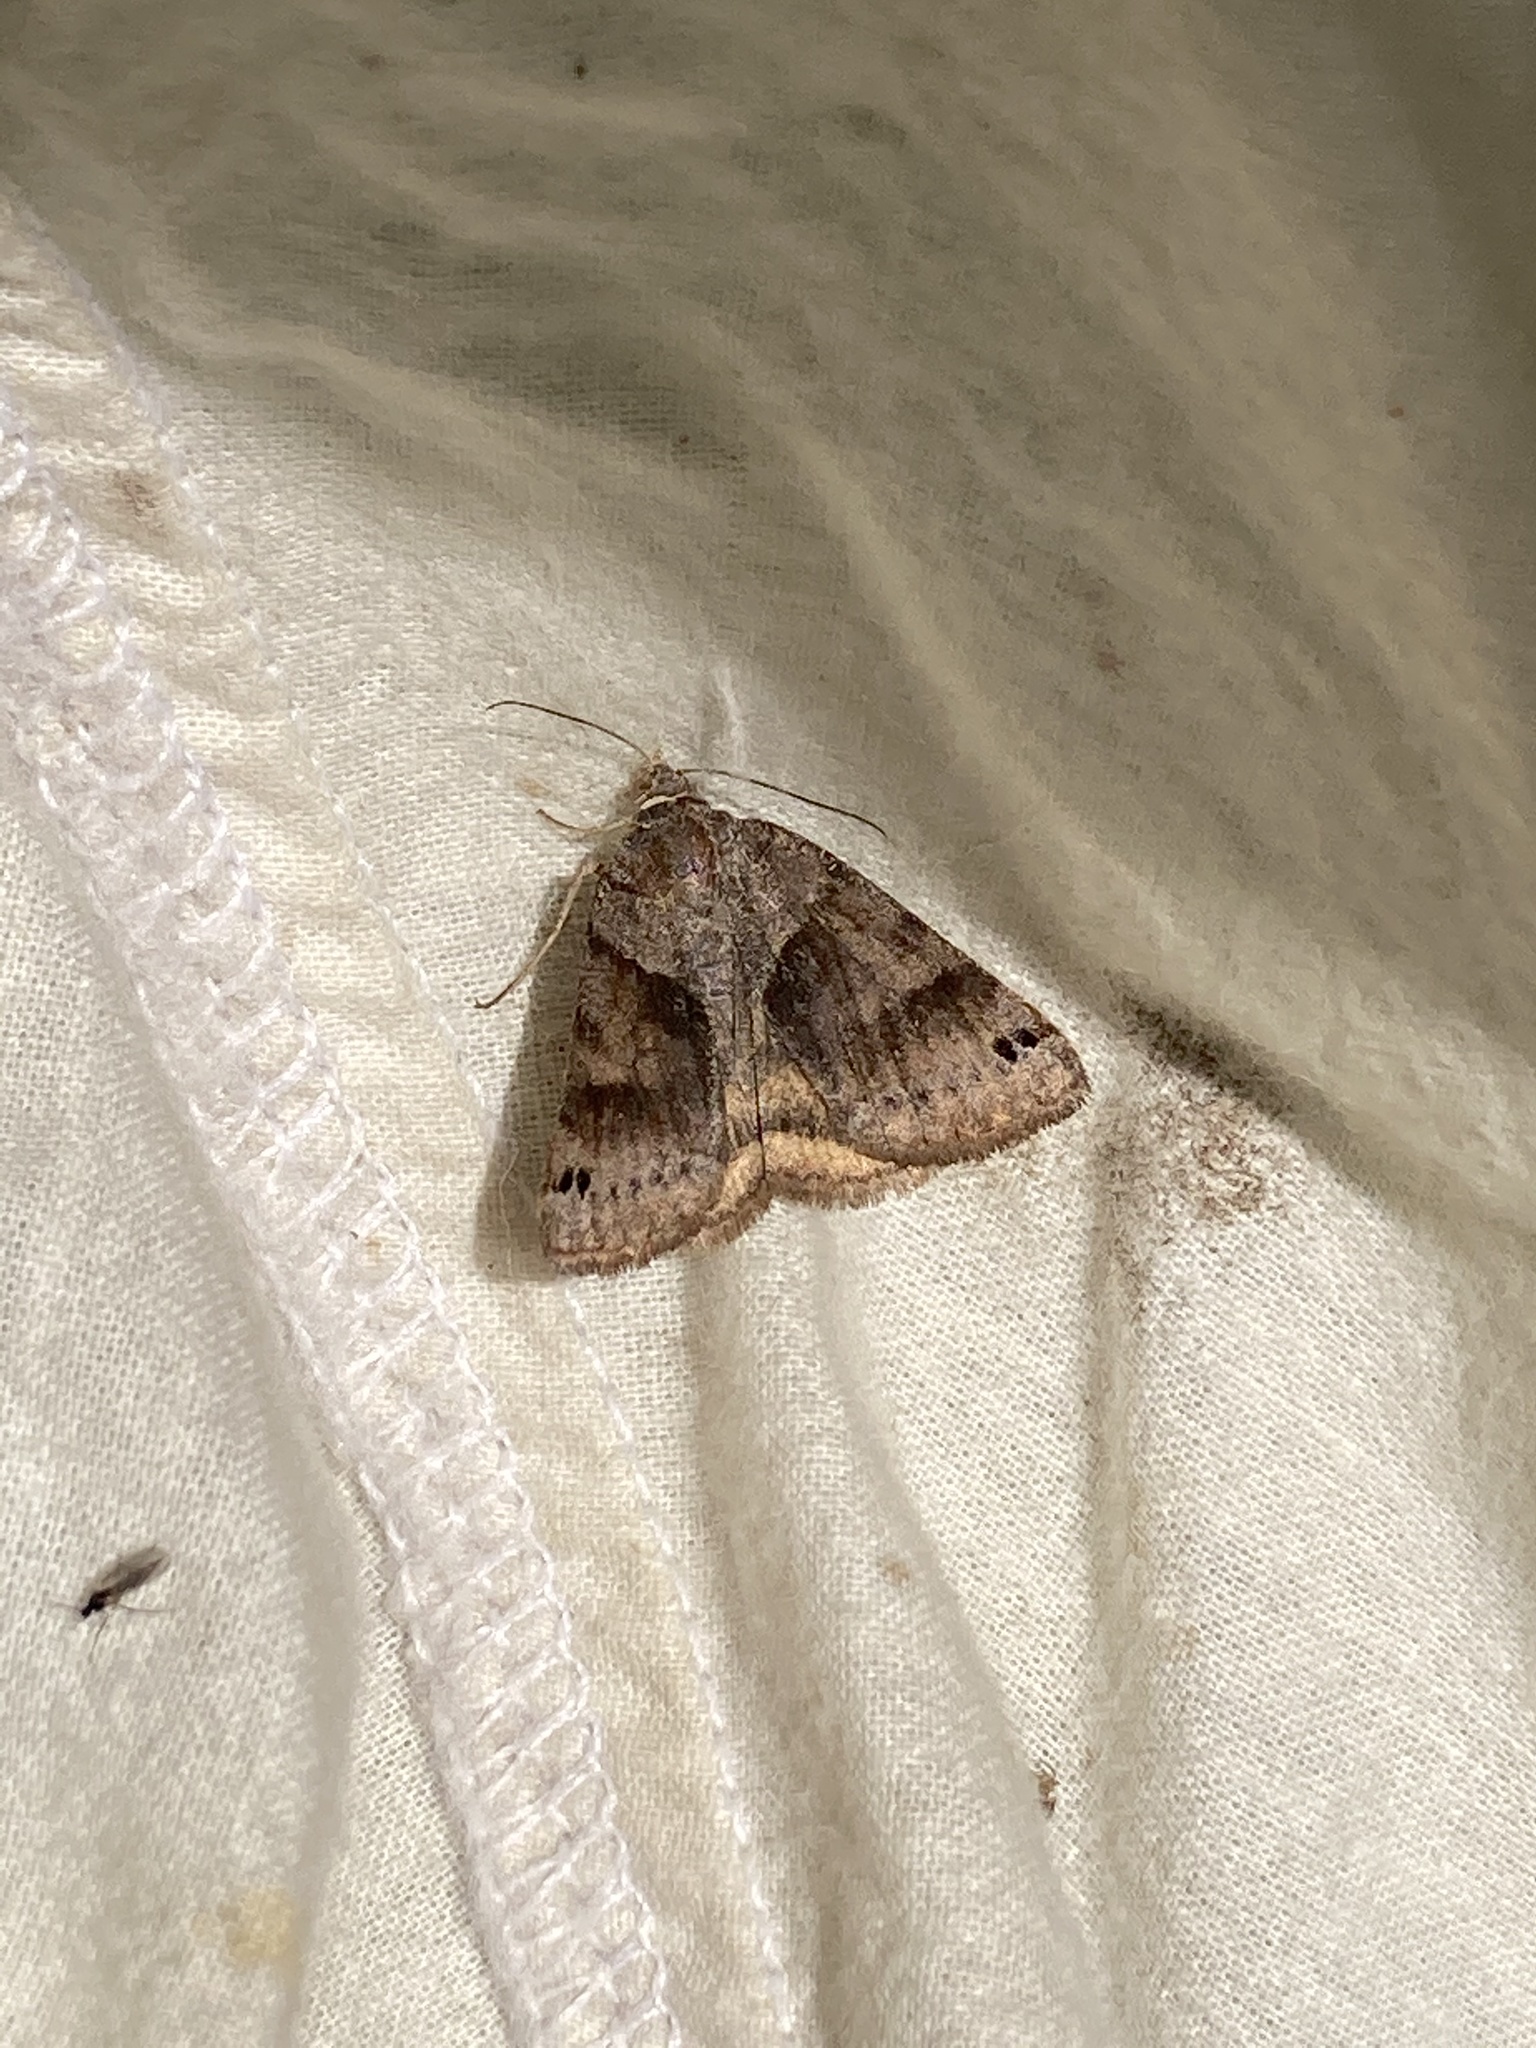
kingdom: Animalia
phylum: Arthropoda
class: Insecta
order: Lepidoptera
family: Erebidae
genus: Caenurgina
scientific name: Caenurgina crassiuscula
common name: Double-barred
